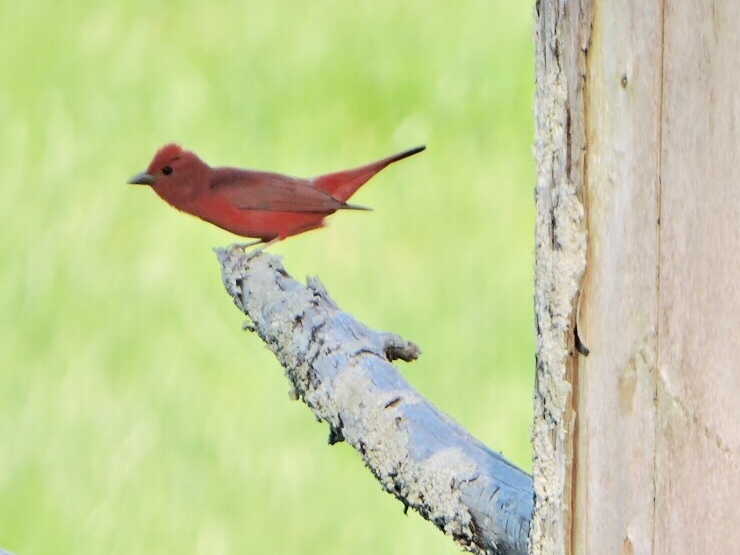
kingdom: Animalia
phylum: Chordata
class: Aves
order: Passeriformes
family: Cardinalidae
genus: Piranga
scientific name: Piranga rubra
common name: Summer tanager
